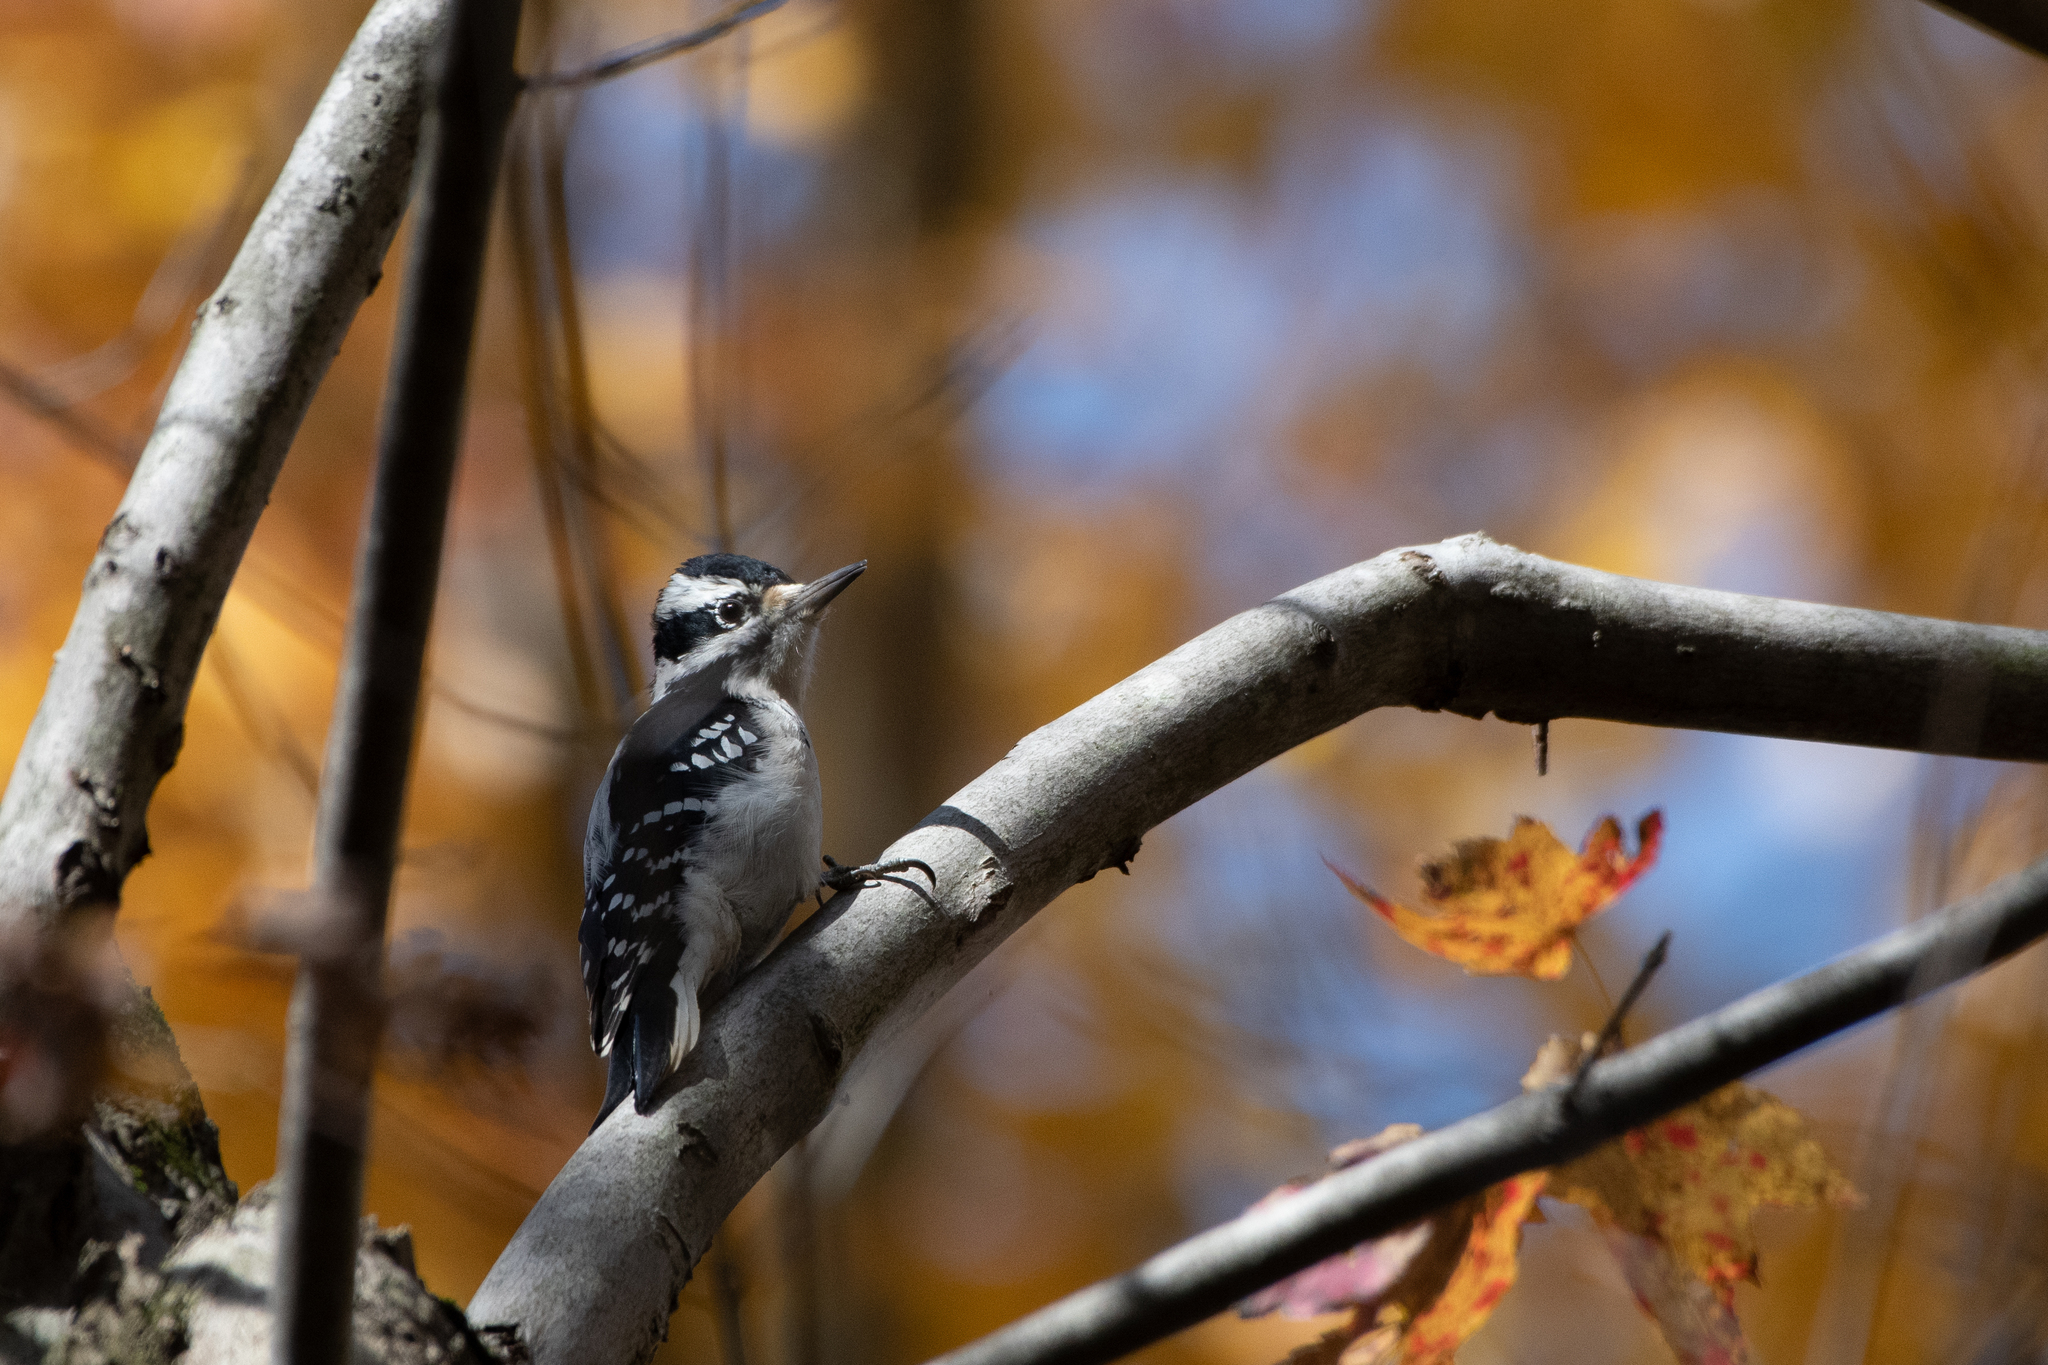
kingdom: Animalia
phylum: Chordata
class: Aves
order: Piciformes
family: Picidae
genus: Leuconotopicus
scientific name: Leuconotopicus villosus
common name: Hairy woodpecker
